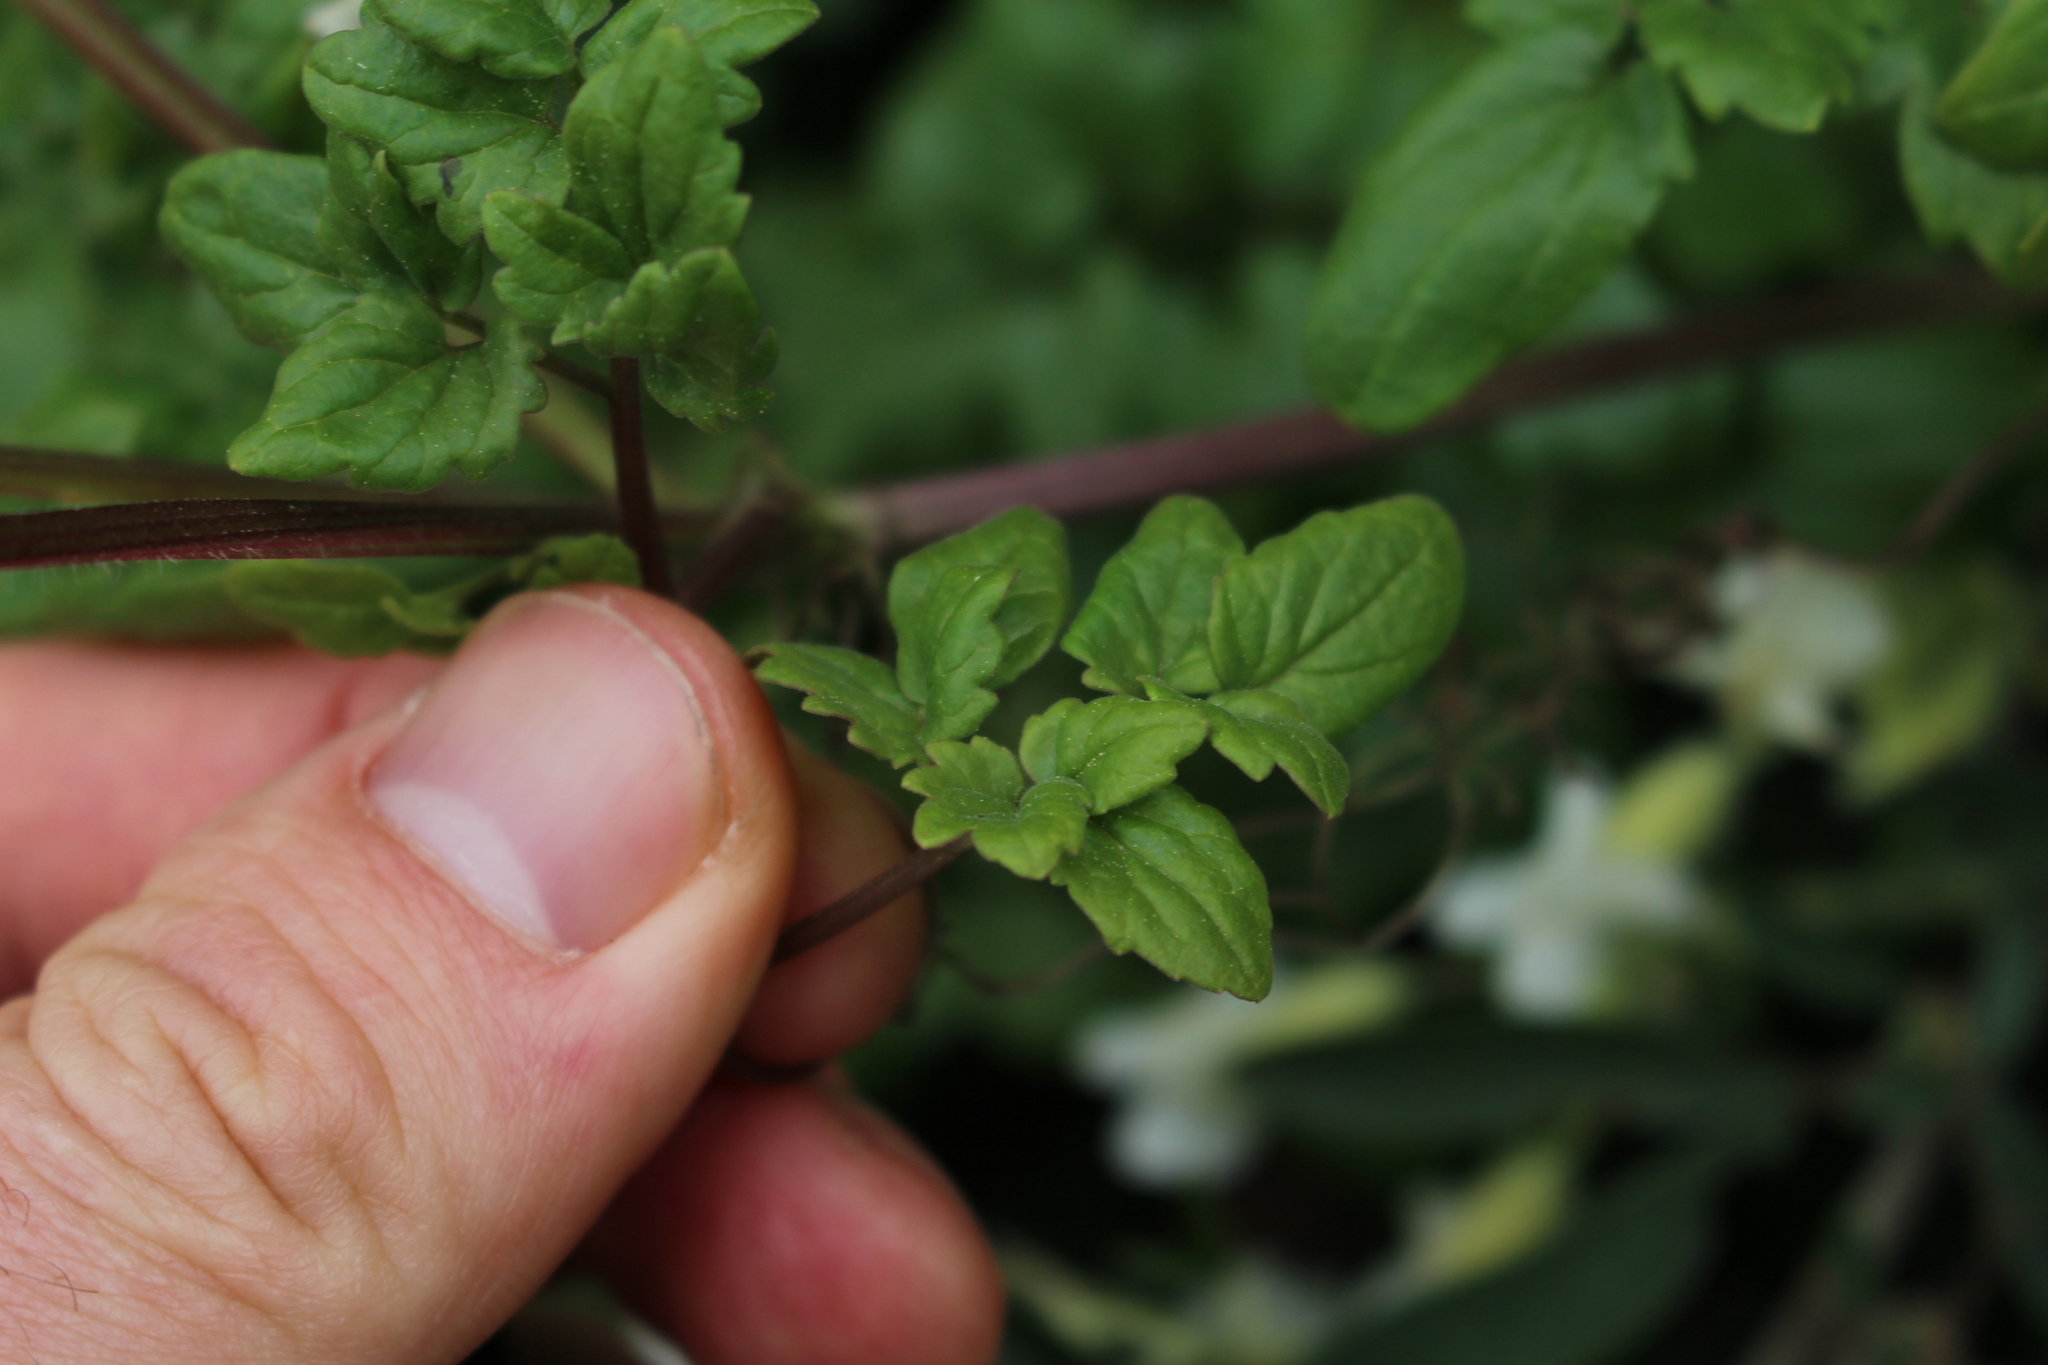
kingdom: Plantae
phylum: Tracheophyta
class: Magnoliopsida
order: Lamiales
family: Bignoniaceae
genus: Eccremocarpus
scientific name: Eccremocarpus scaber
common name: Chilean glory-flower
